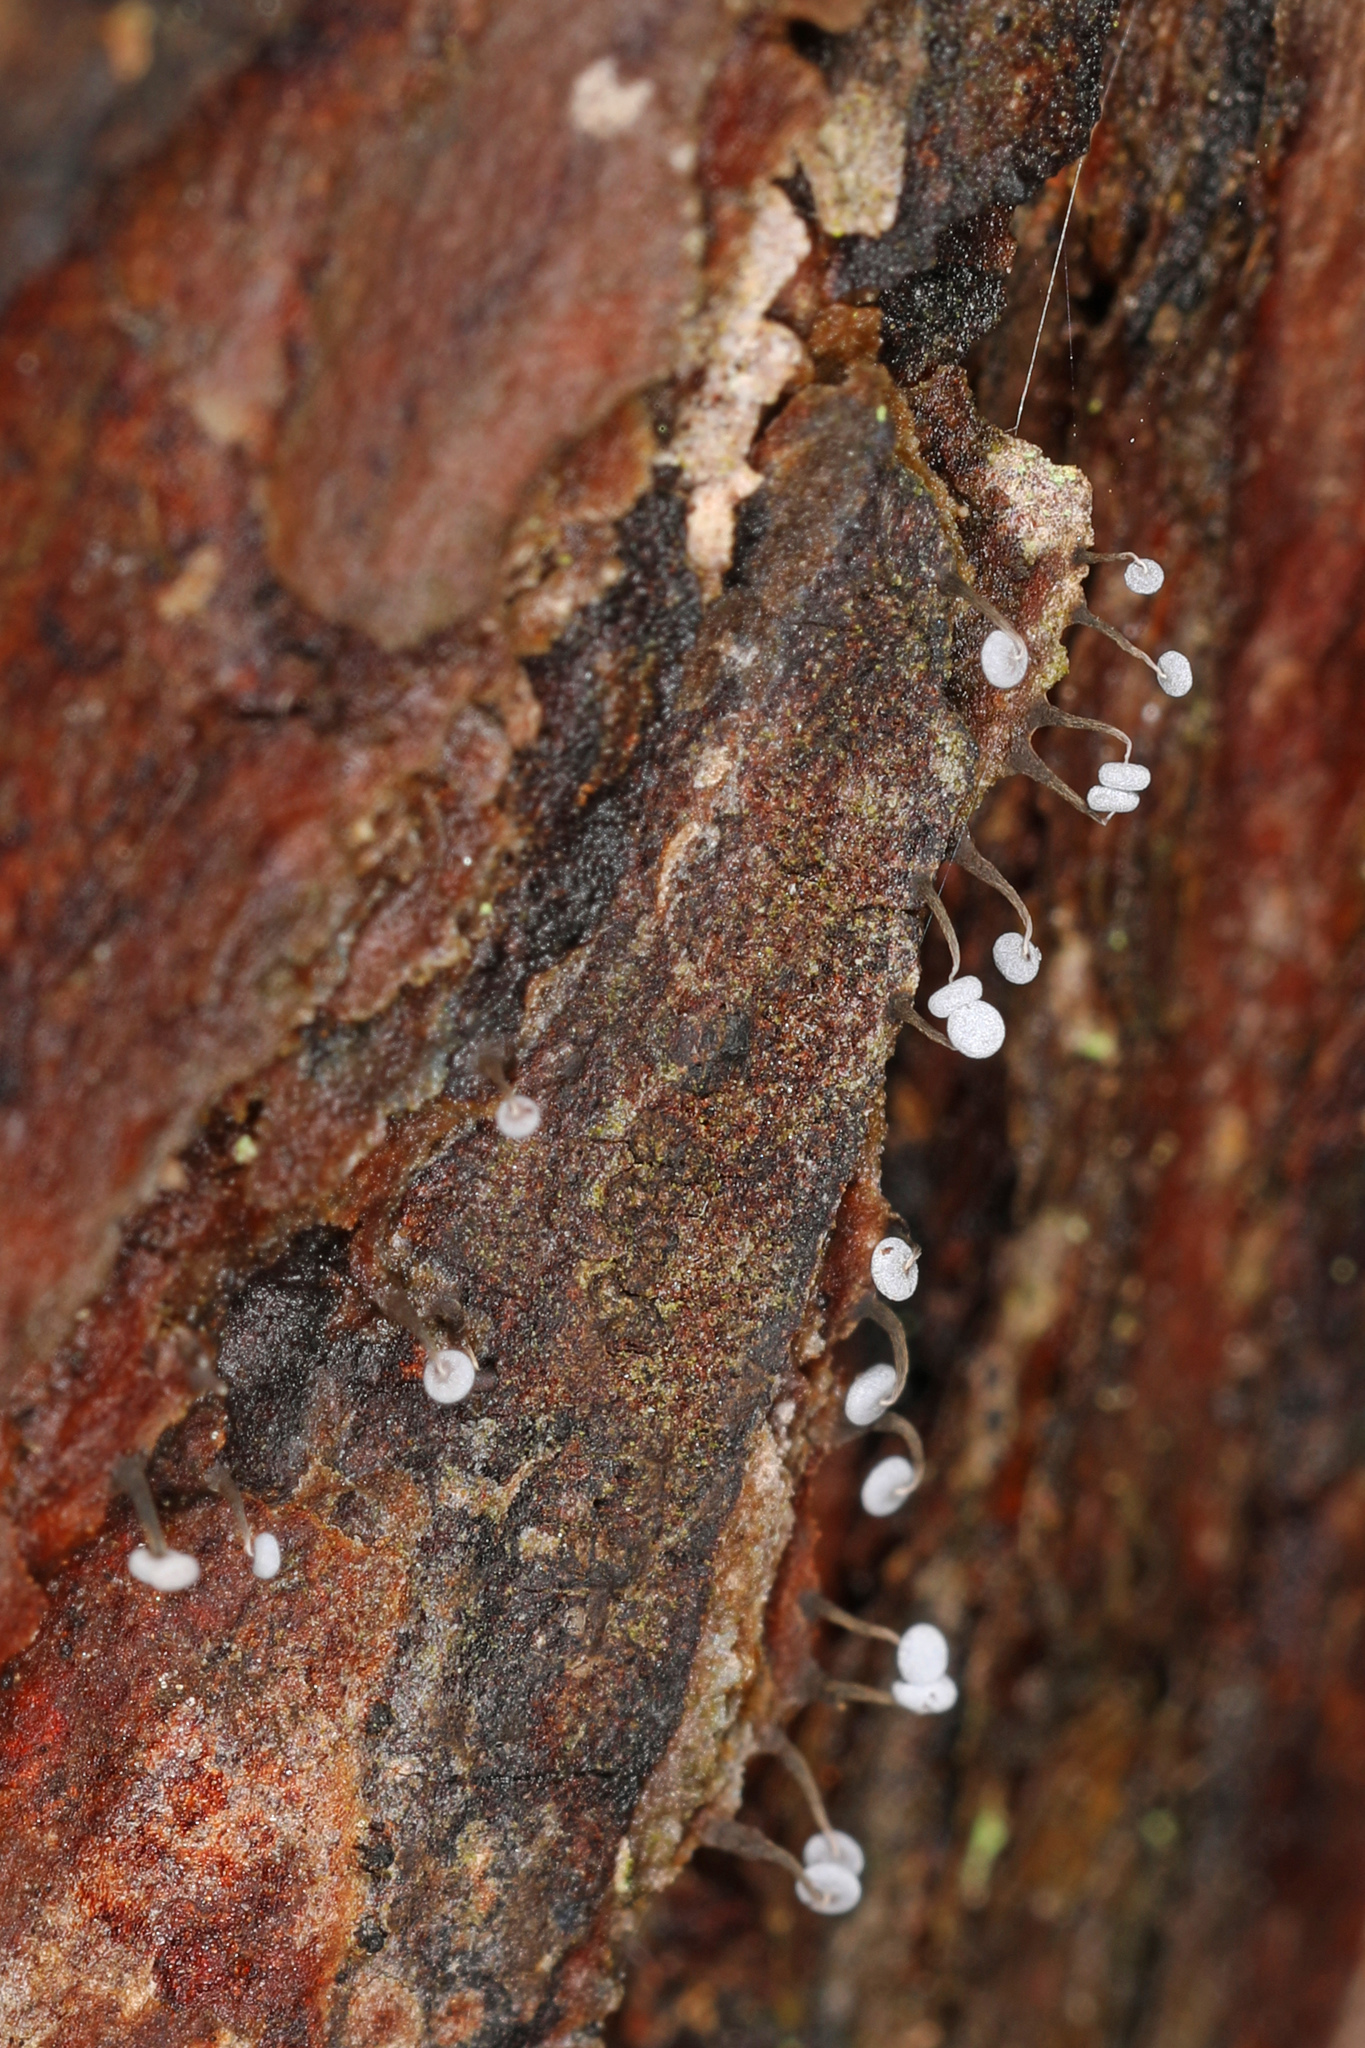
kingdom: Protozoa
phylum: Mycetozoa
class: Myxomycetes
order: Physarales
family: Physaraceae
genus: Physarum
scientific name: Physarum album
